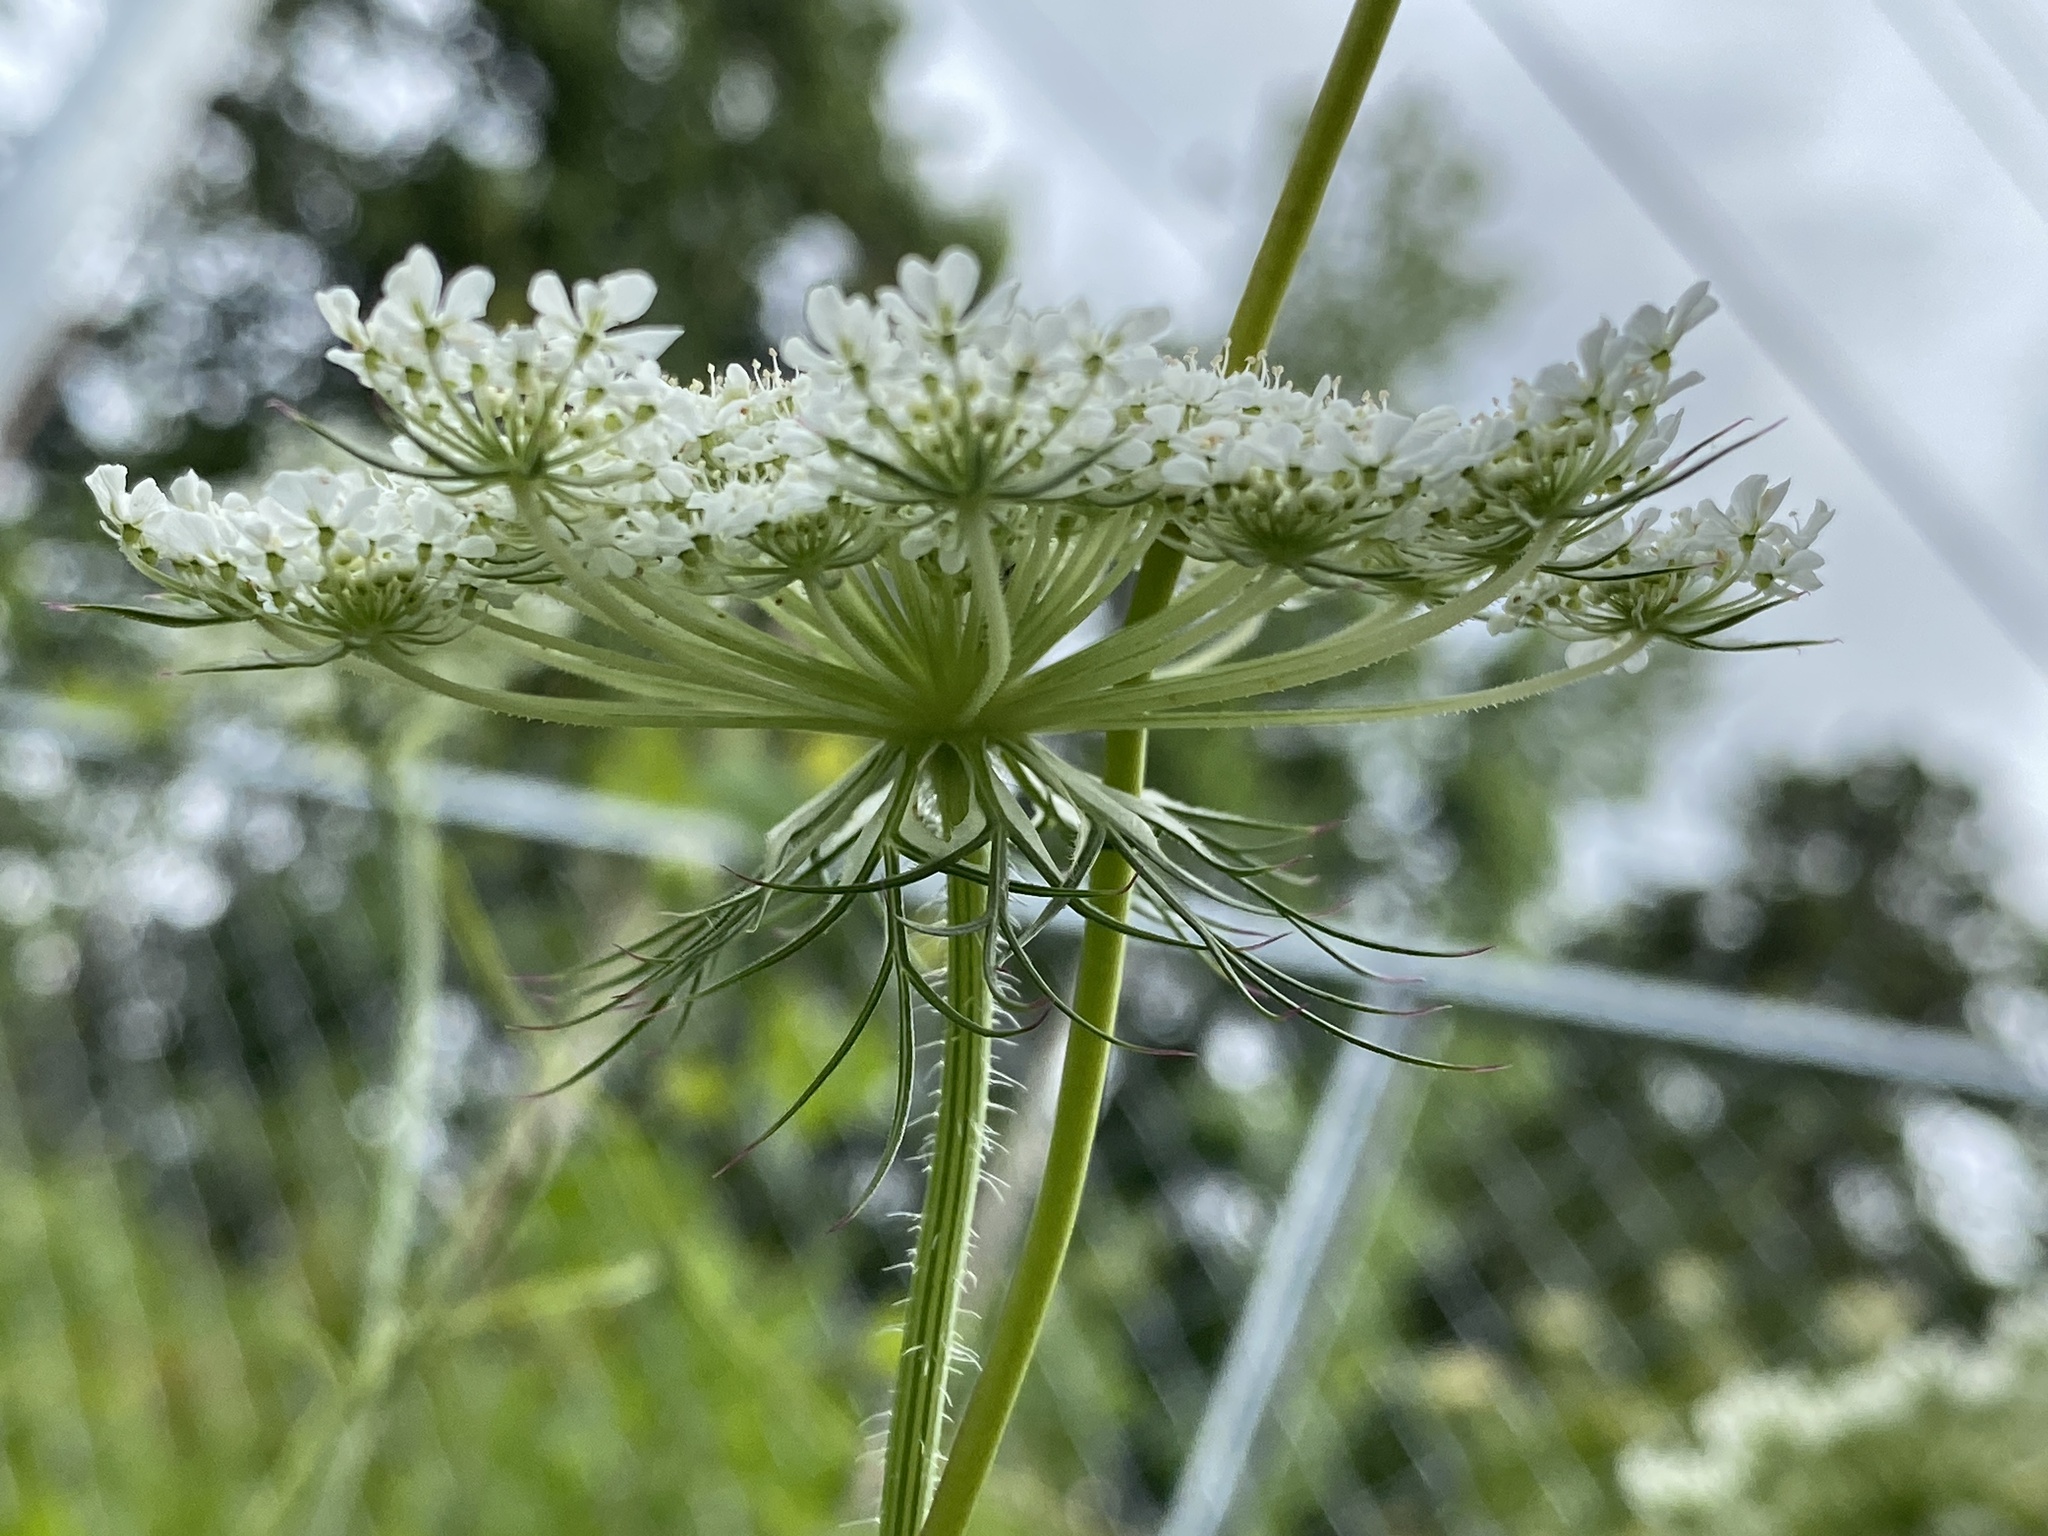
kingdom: Plantae
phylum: Tracheophyta
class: Magnoliopsida
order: Apiales
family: Apiaceae
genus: Daucus
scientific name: Daucus carota
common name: Wild carrot
